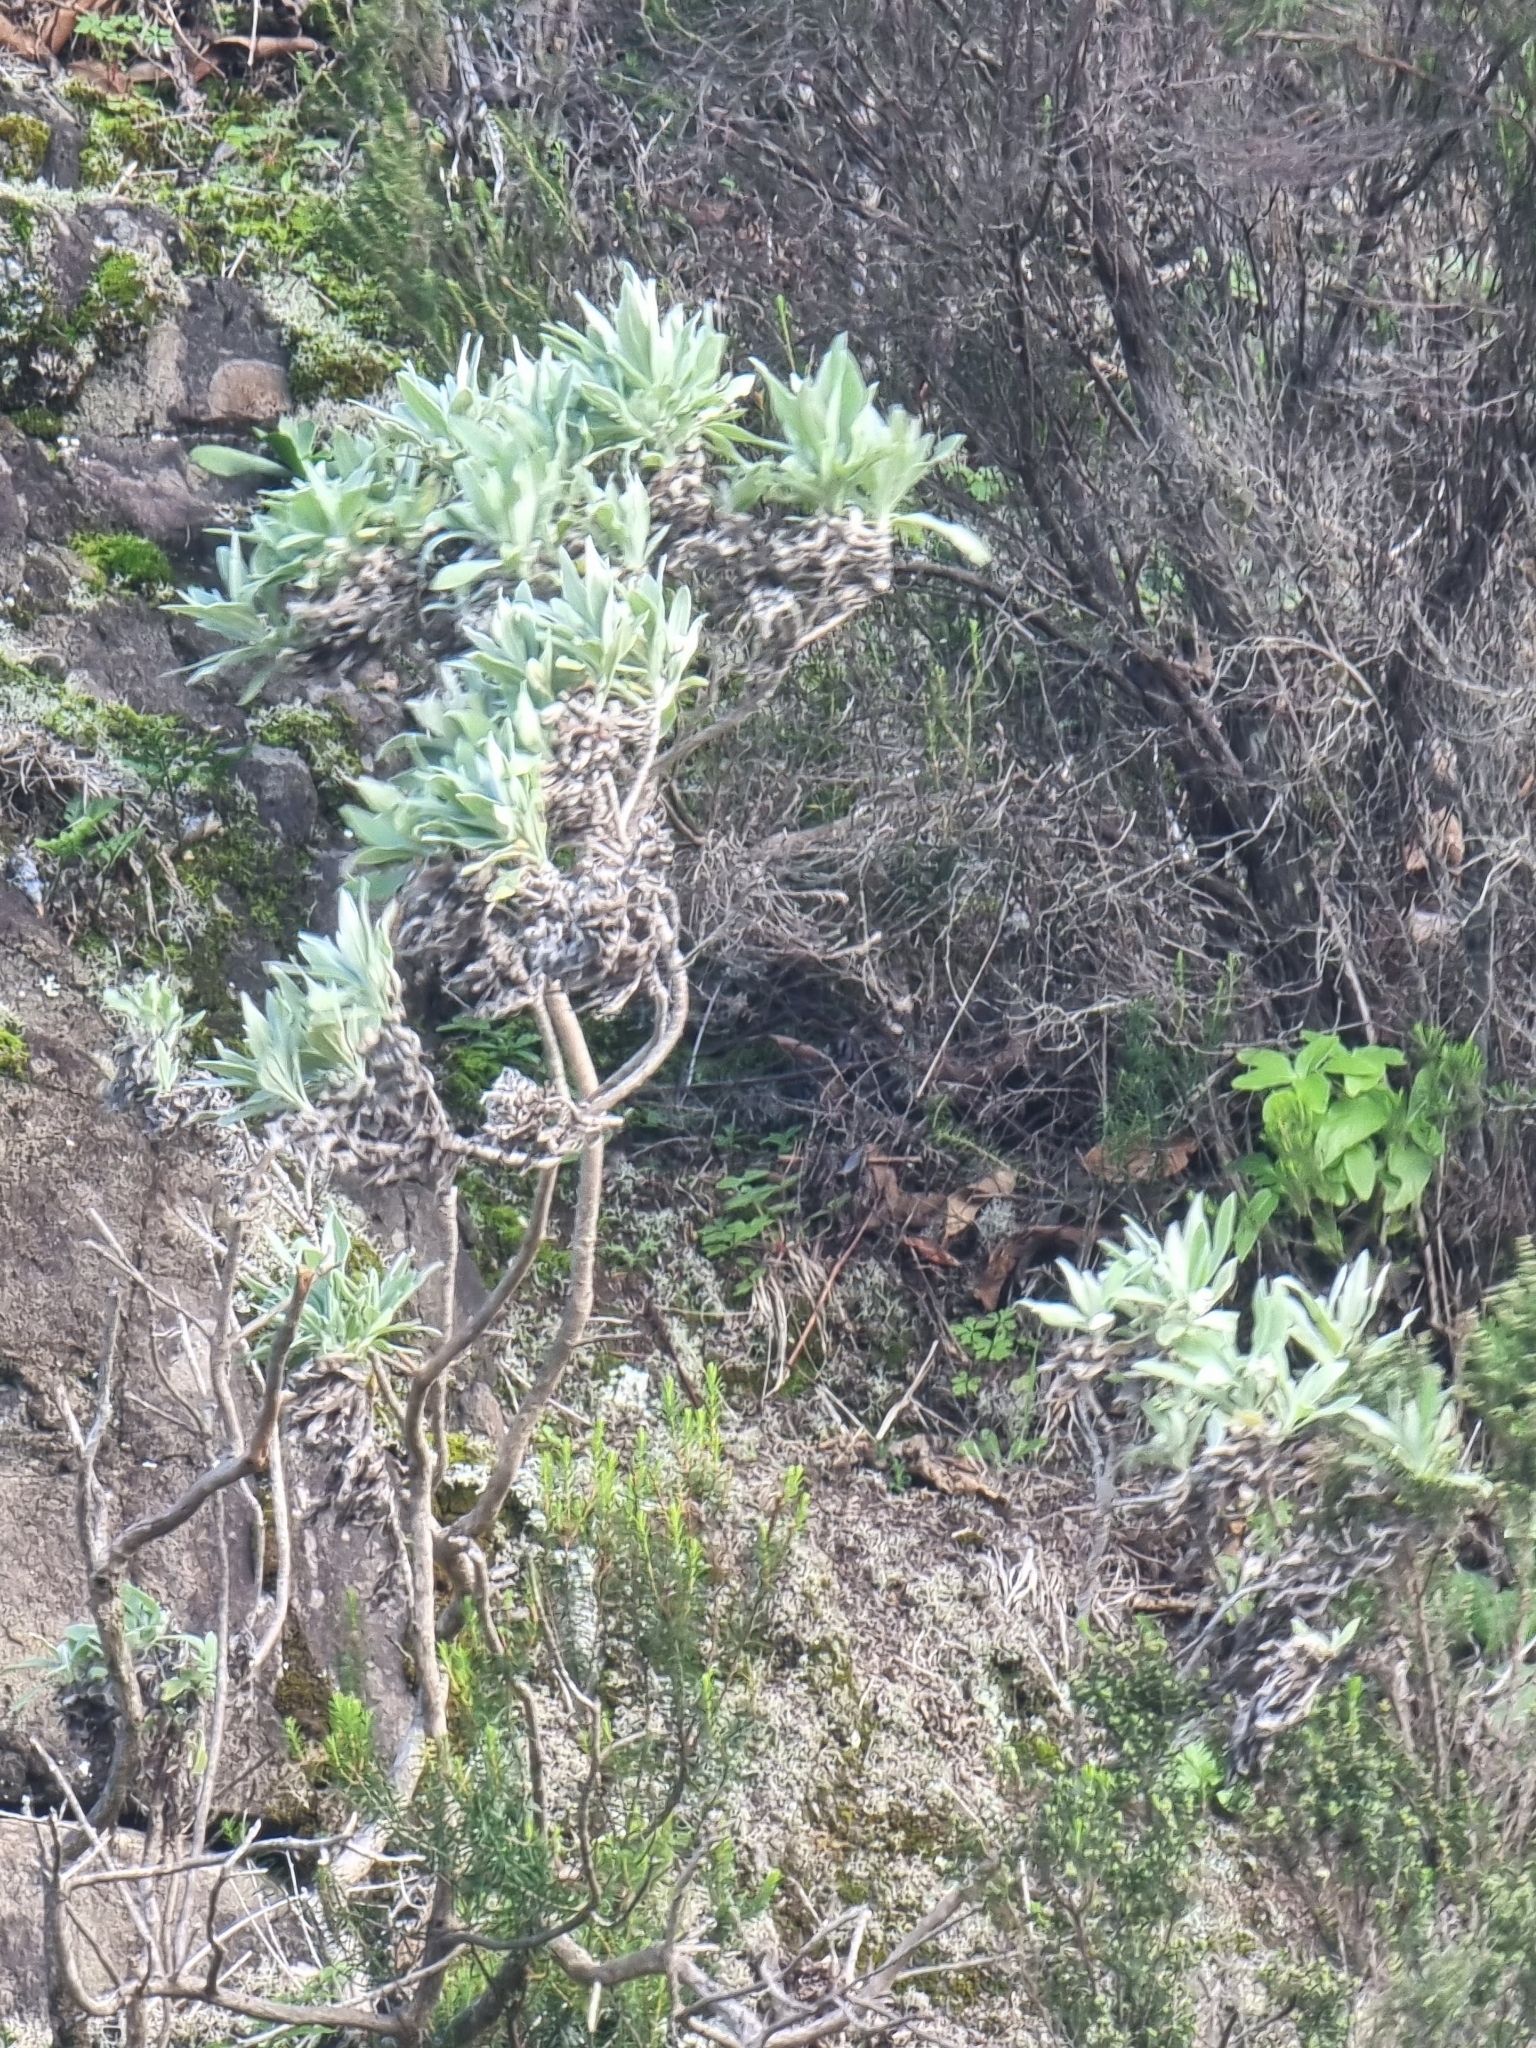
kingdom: Plantae
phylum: Tracheophyta
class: Magnoliopsida
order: Asterales
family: Asteraceae
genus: Helichrysum
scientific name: Helichrysum melaleucum
